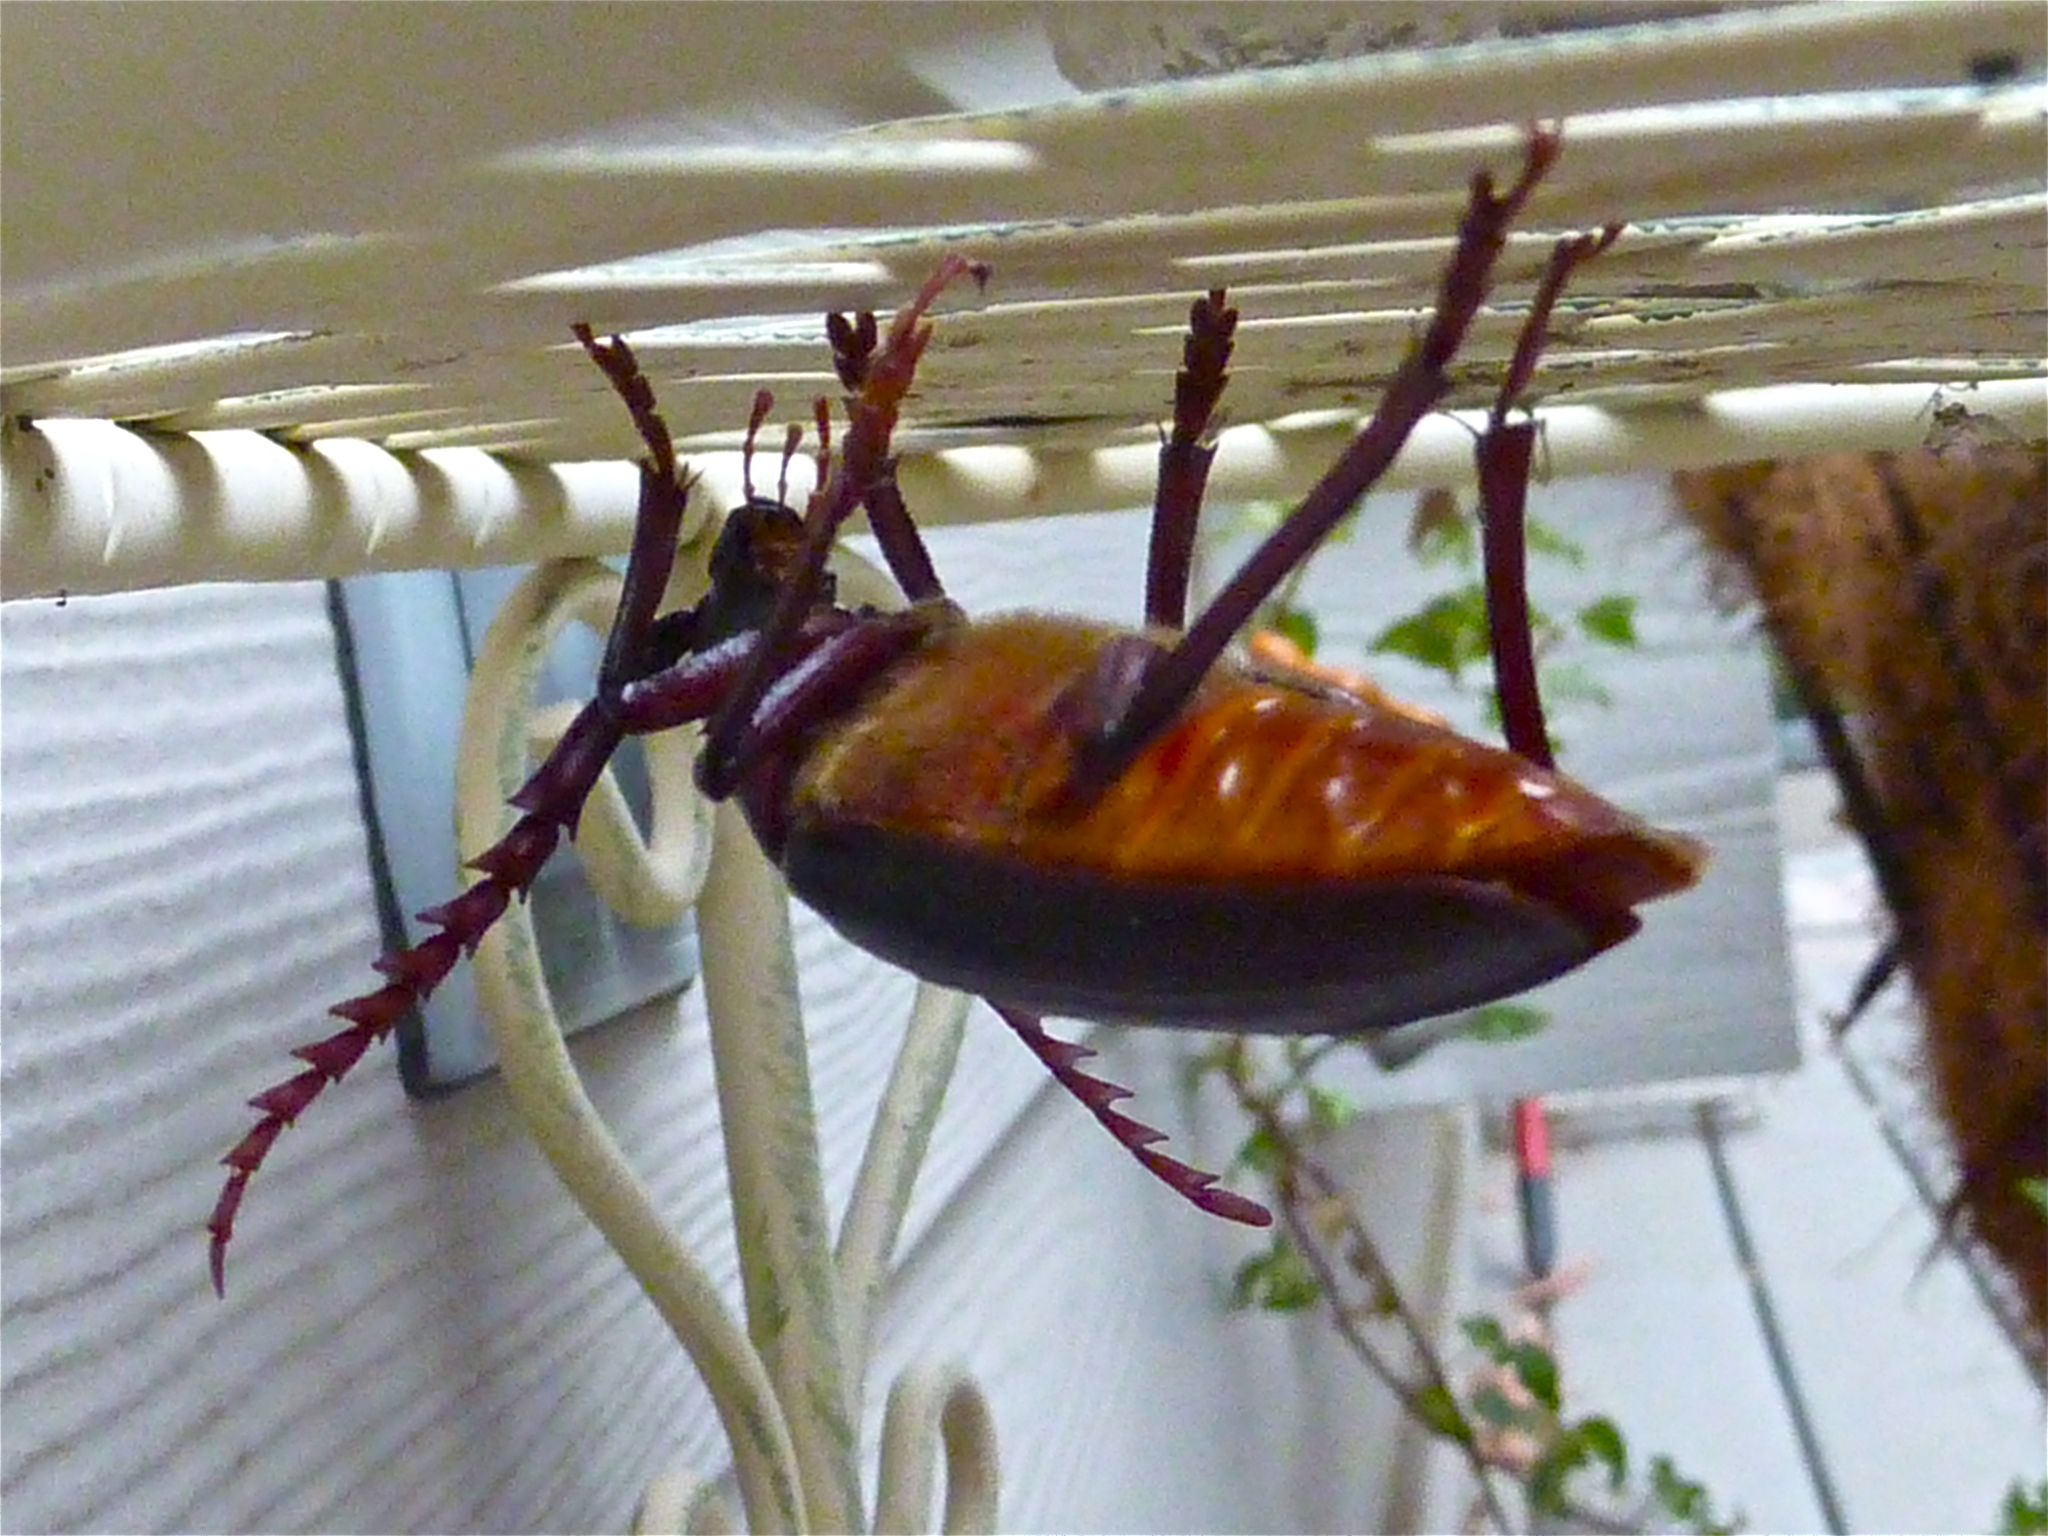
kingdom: Animalia
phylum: Arthropoda
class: Insecta
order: Coleoptera
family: Cerambycidae
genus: Prionus
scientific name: Prionus californicus
